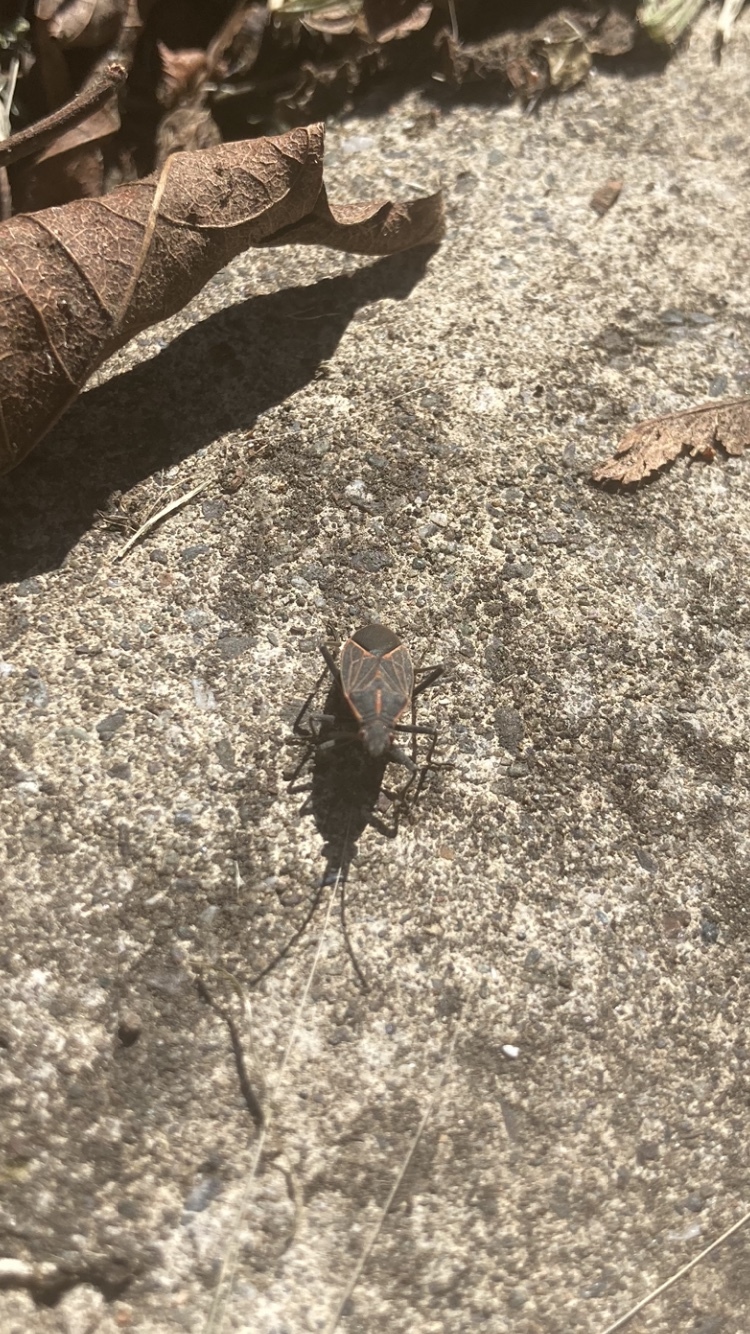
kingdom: Animalia
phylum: Arthropoda
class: Insecta
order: Hemiptera
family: Rhopalidae
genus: Boisea
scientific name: Boisea rubrolineata
